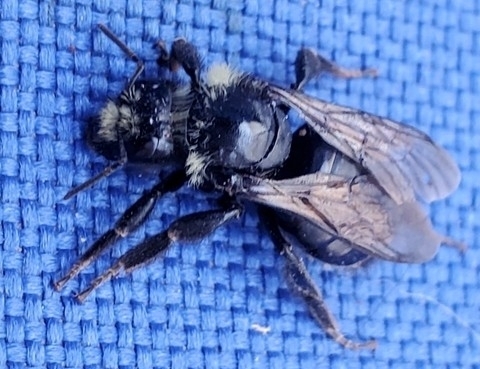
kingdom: Animalia
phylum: Arthropoda
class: Insecta
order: Hymenoptera
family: Apidae
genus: Bombus
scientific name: Bombus
